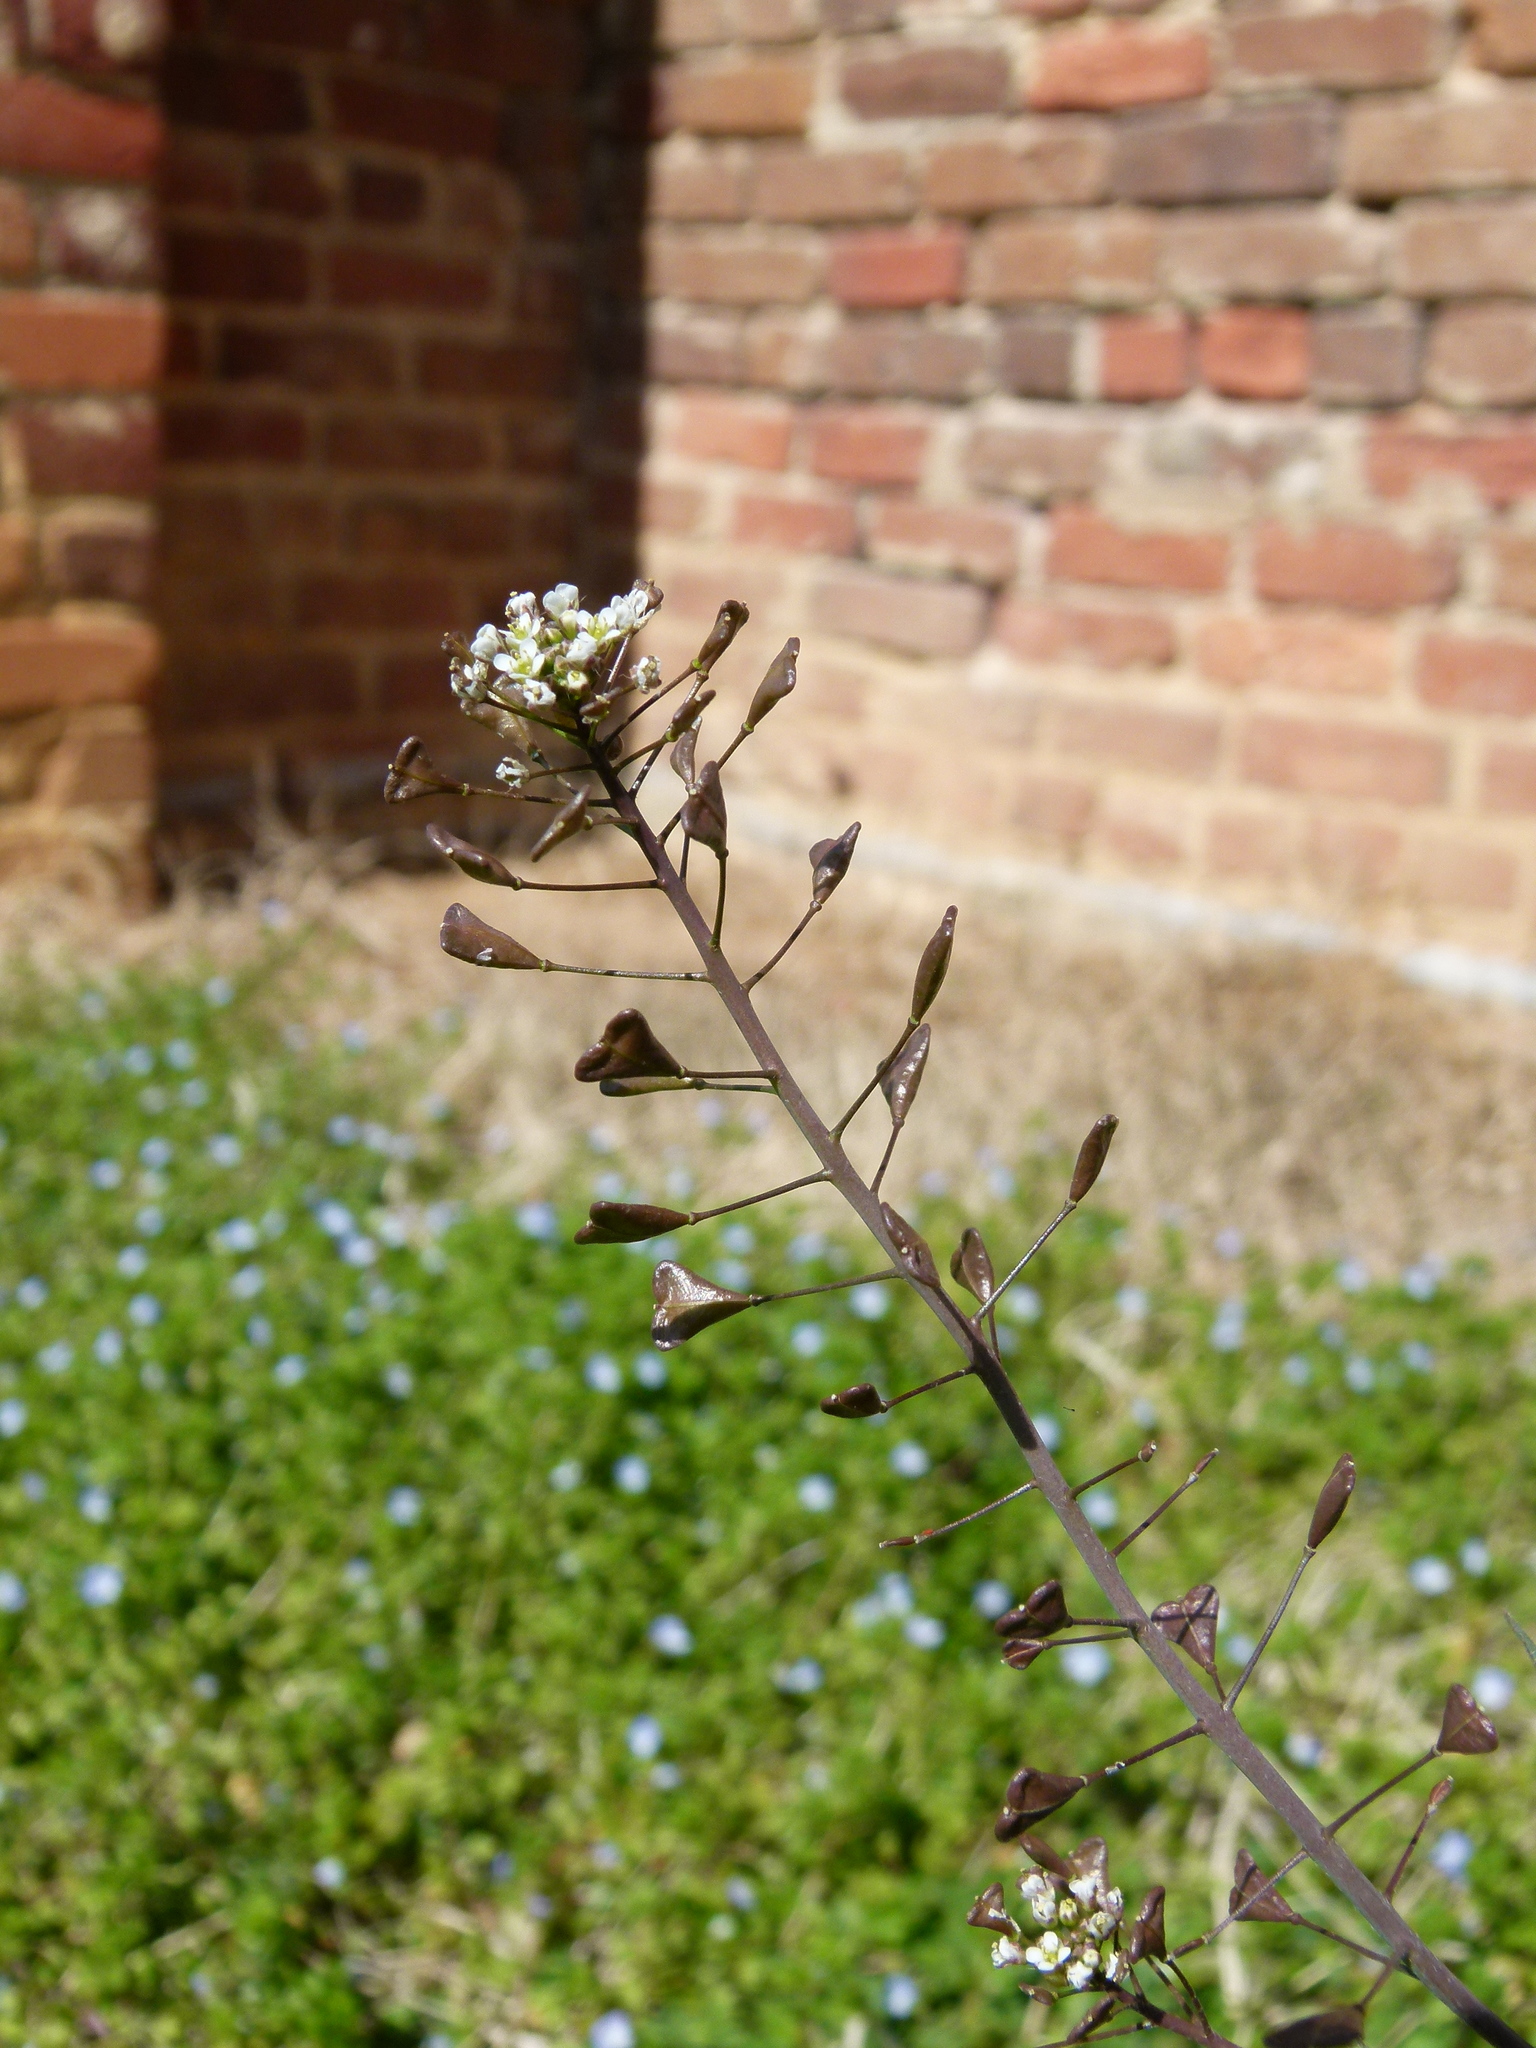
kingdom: Plantae
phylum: Tracheophyta
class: Magnoliopsida
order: Brassicales
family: Brassicaceae
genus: Capsella
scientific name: Capsella bursa-pastoris
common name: Shepherd's purse
